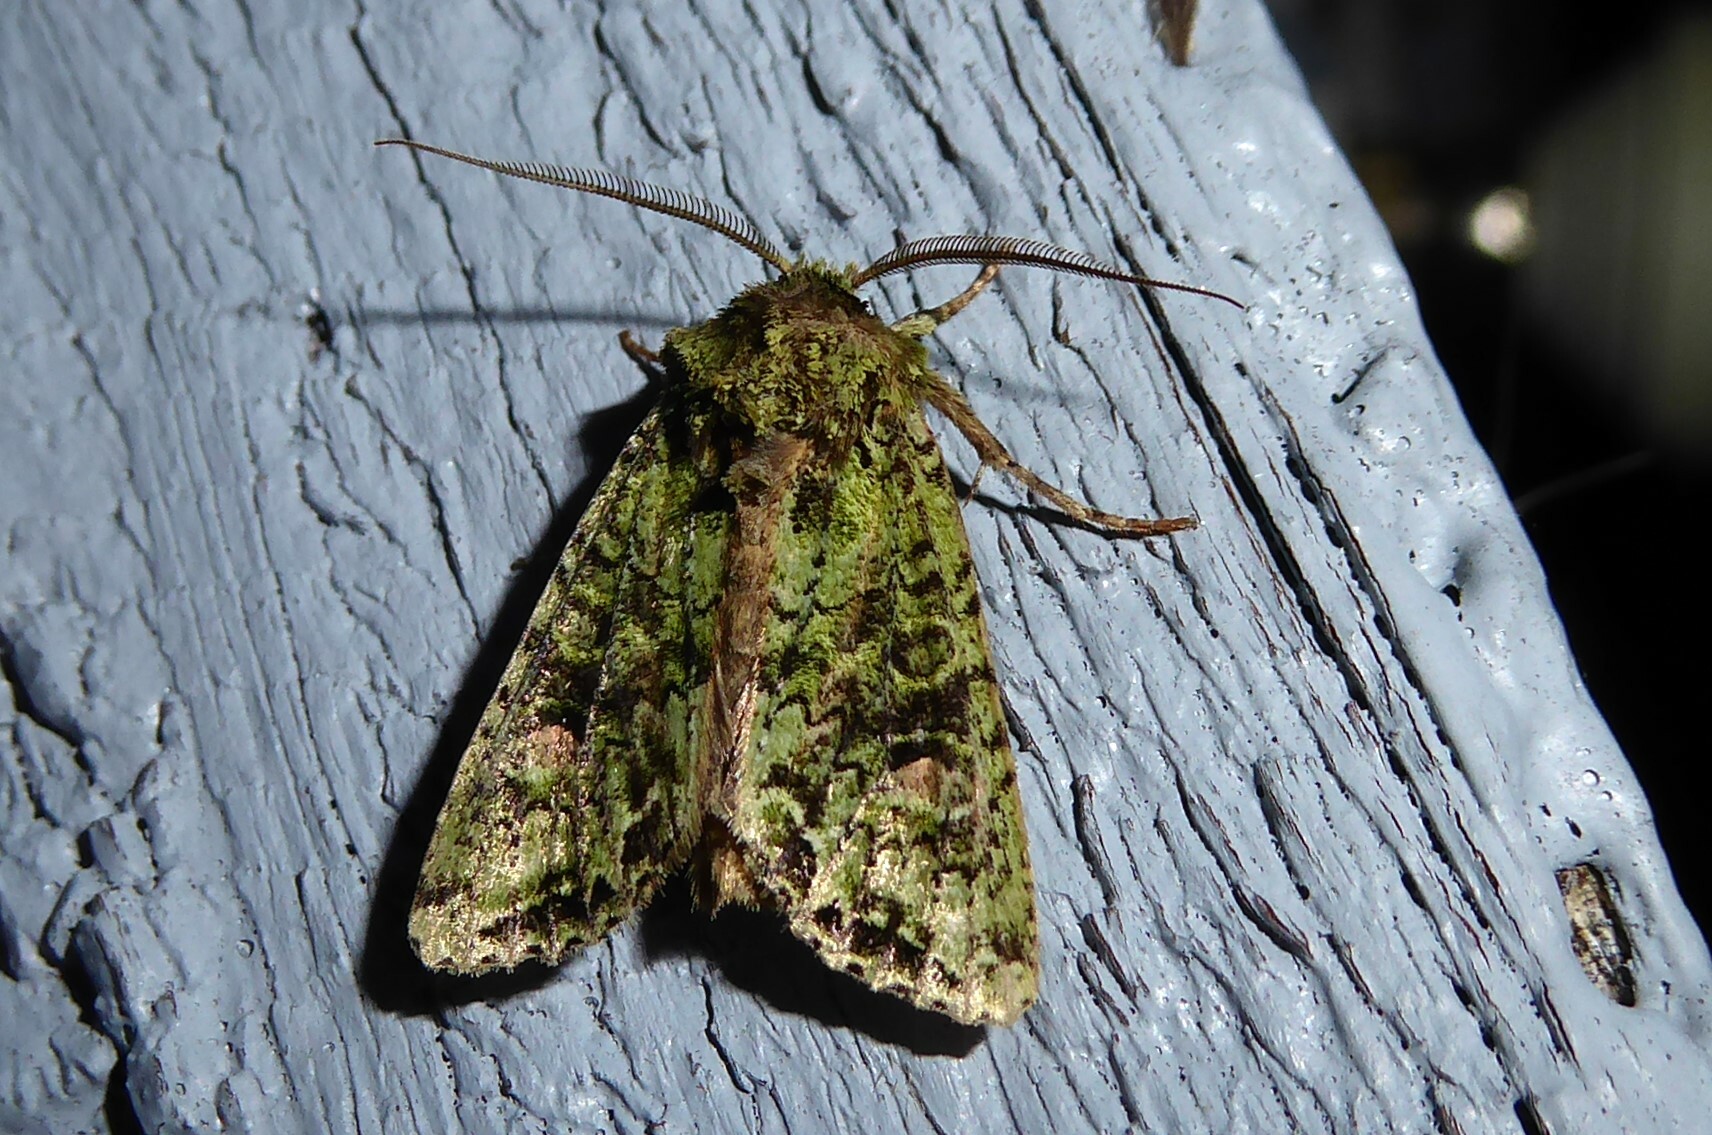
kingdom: Animalia
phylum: Arthropoda
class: Insecta
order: Lepidoptera
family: Noctuidae
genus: Ichneutica
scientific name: Ichneutica
